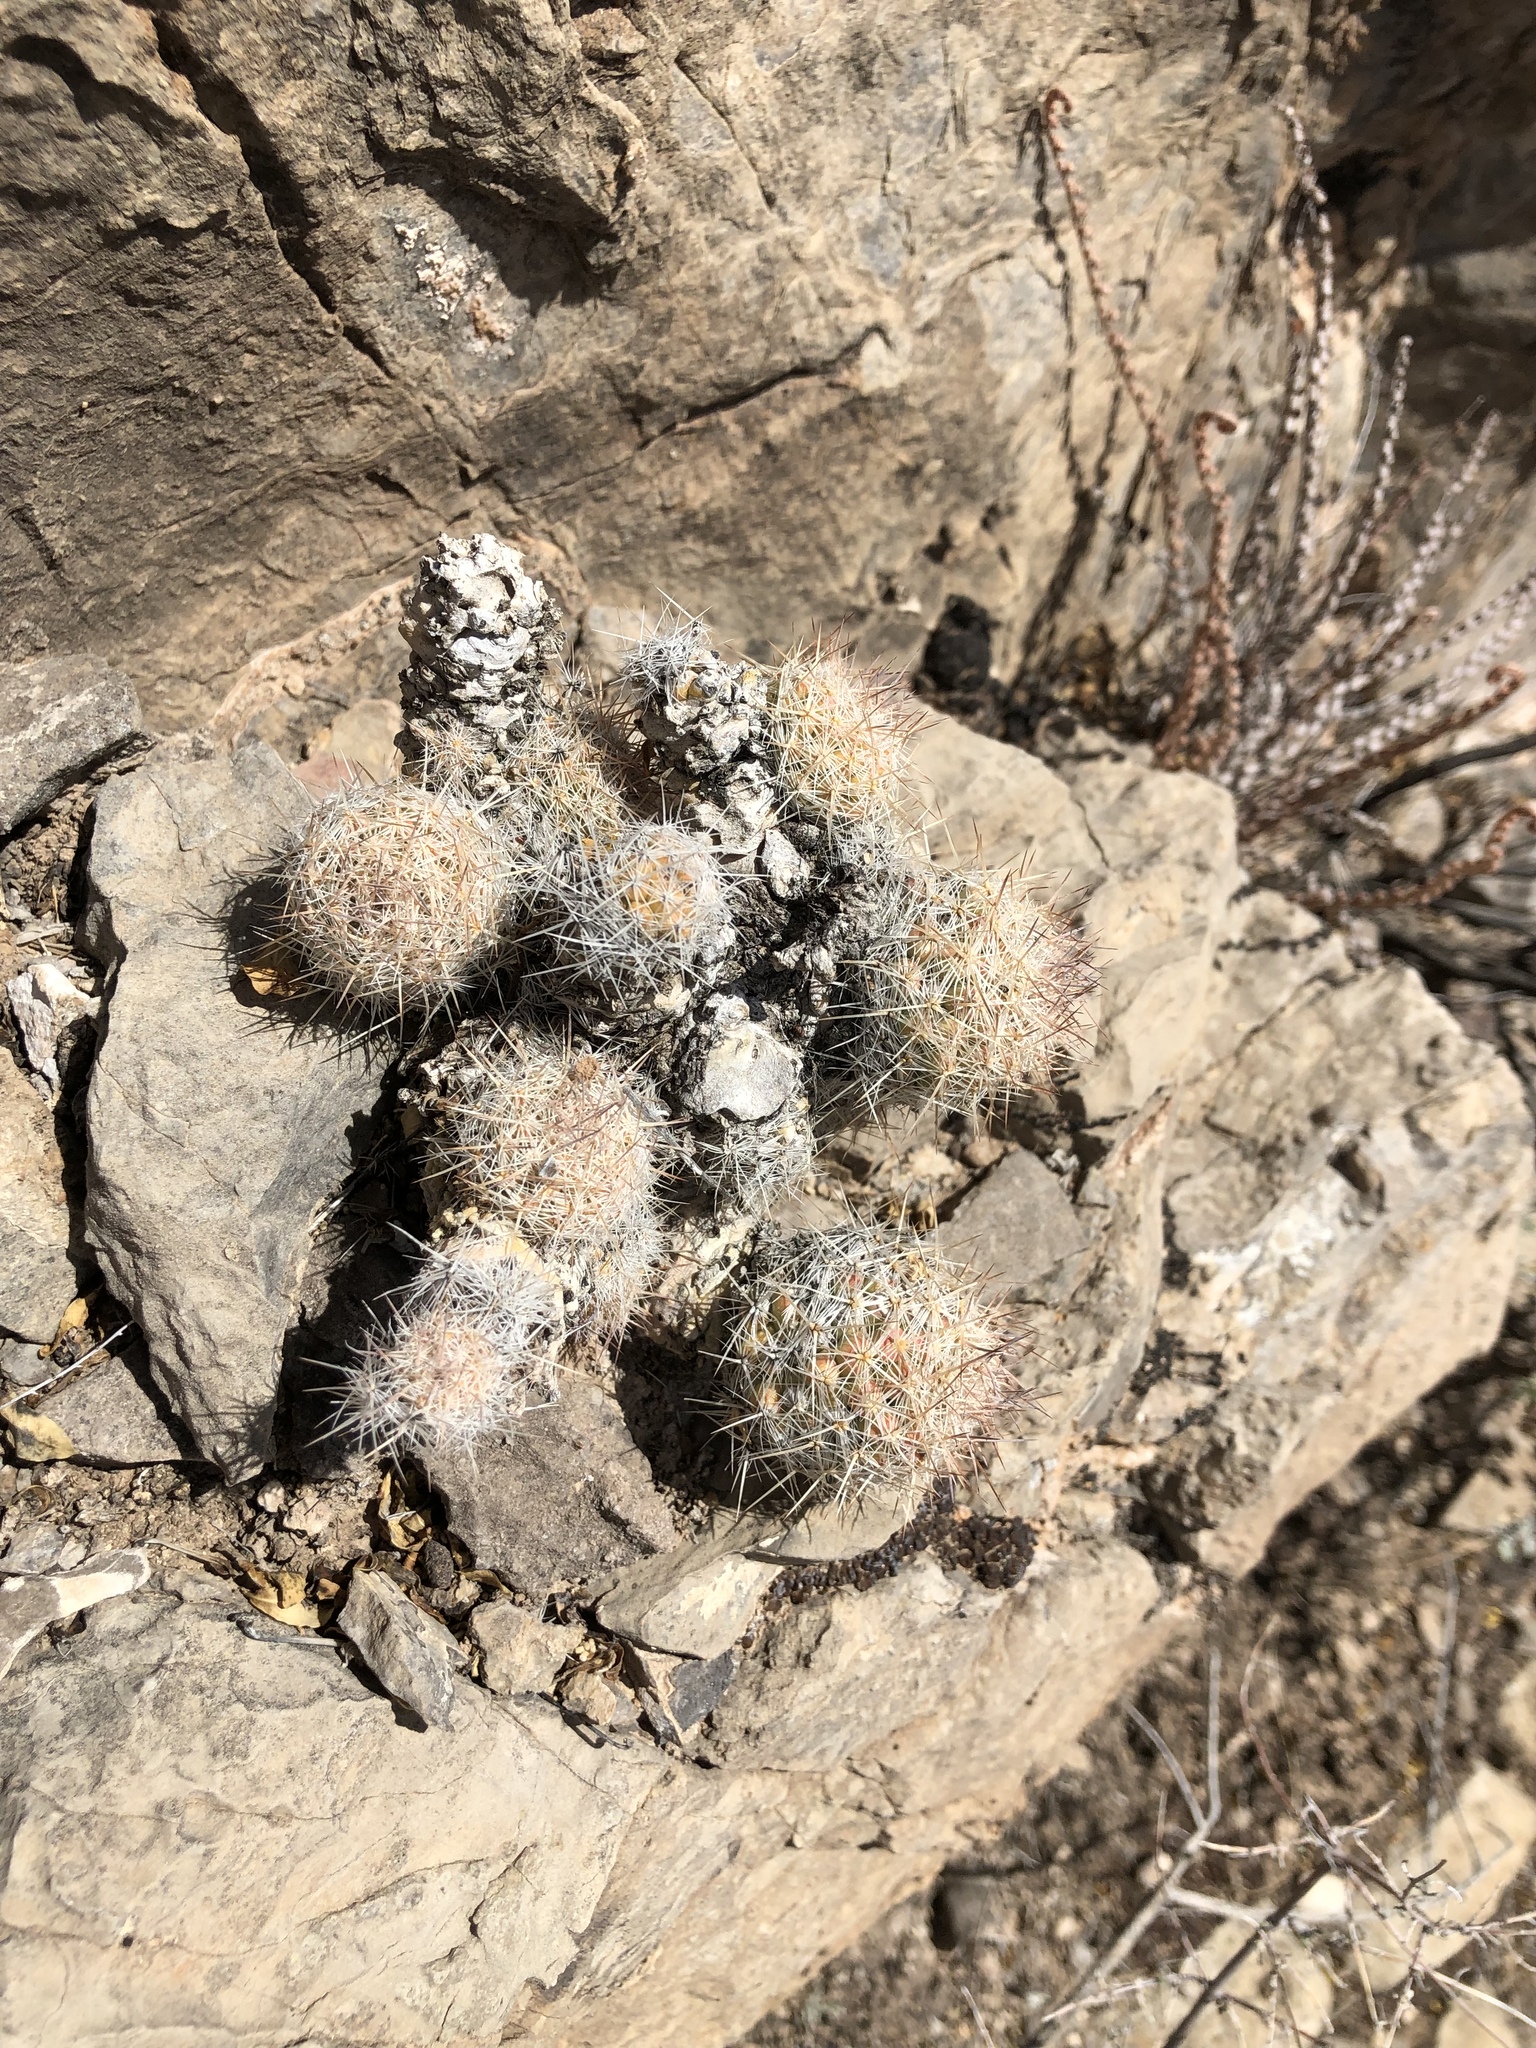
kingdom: Plantae
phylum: Tracheophyta
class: Magnoliopsida
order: Caryophyllales
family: Cactaceae
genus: Pelecyphora
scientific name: Pelecyphora tuberculosa
